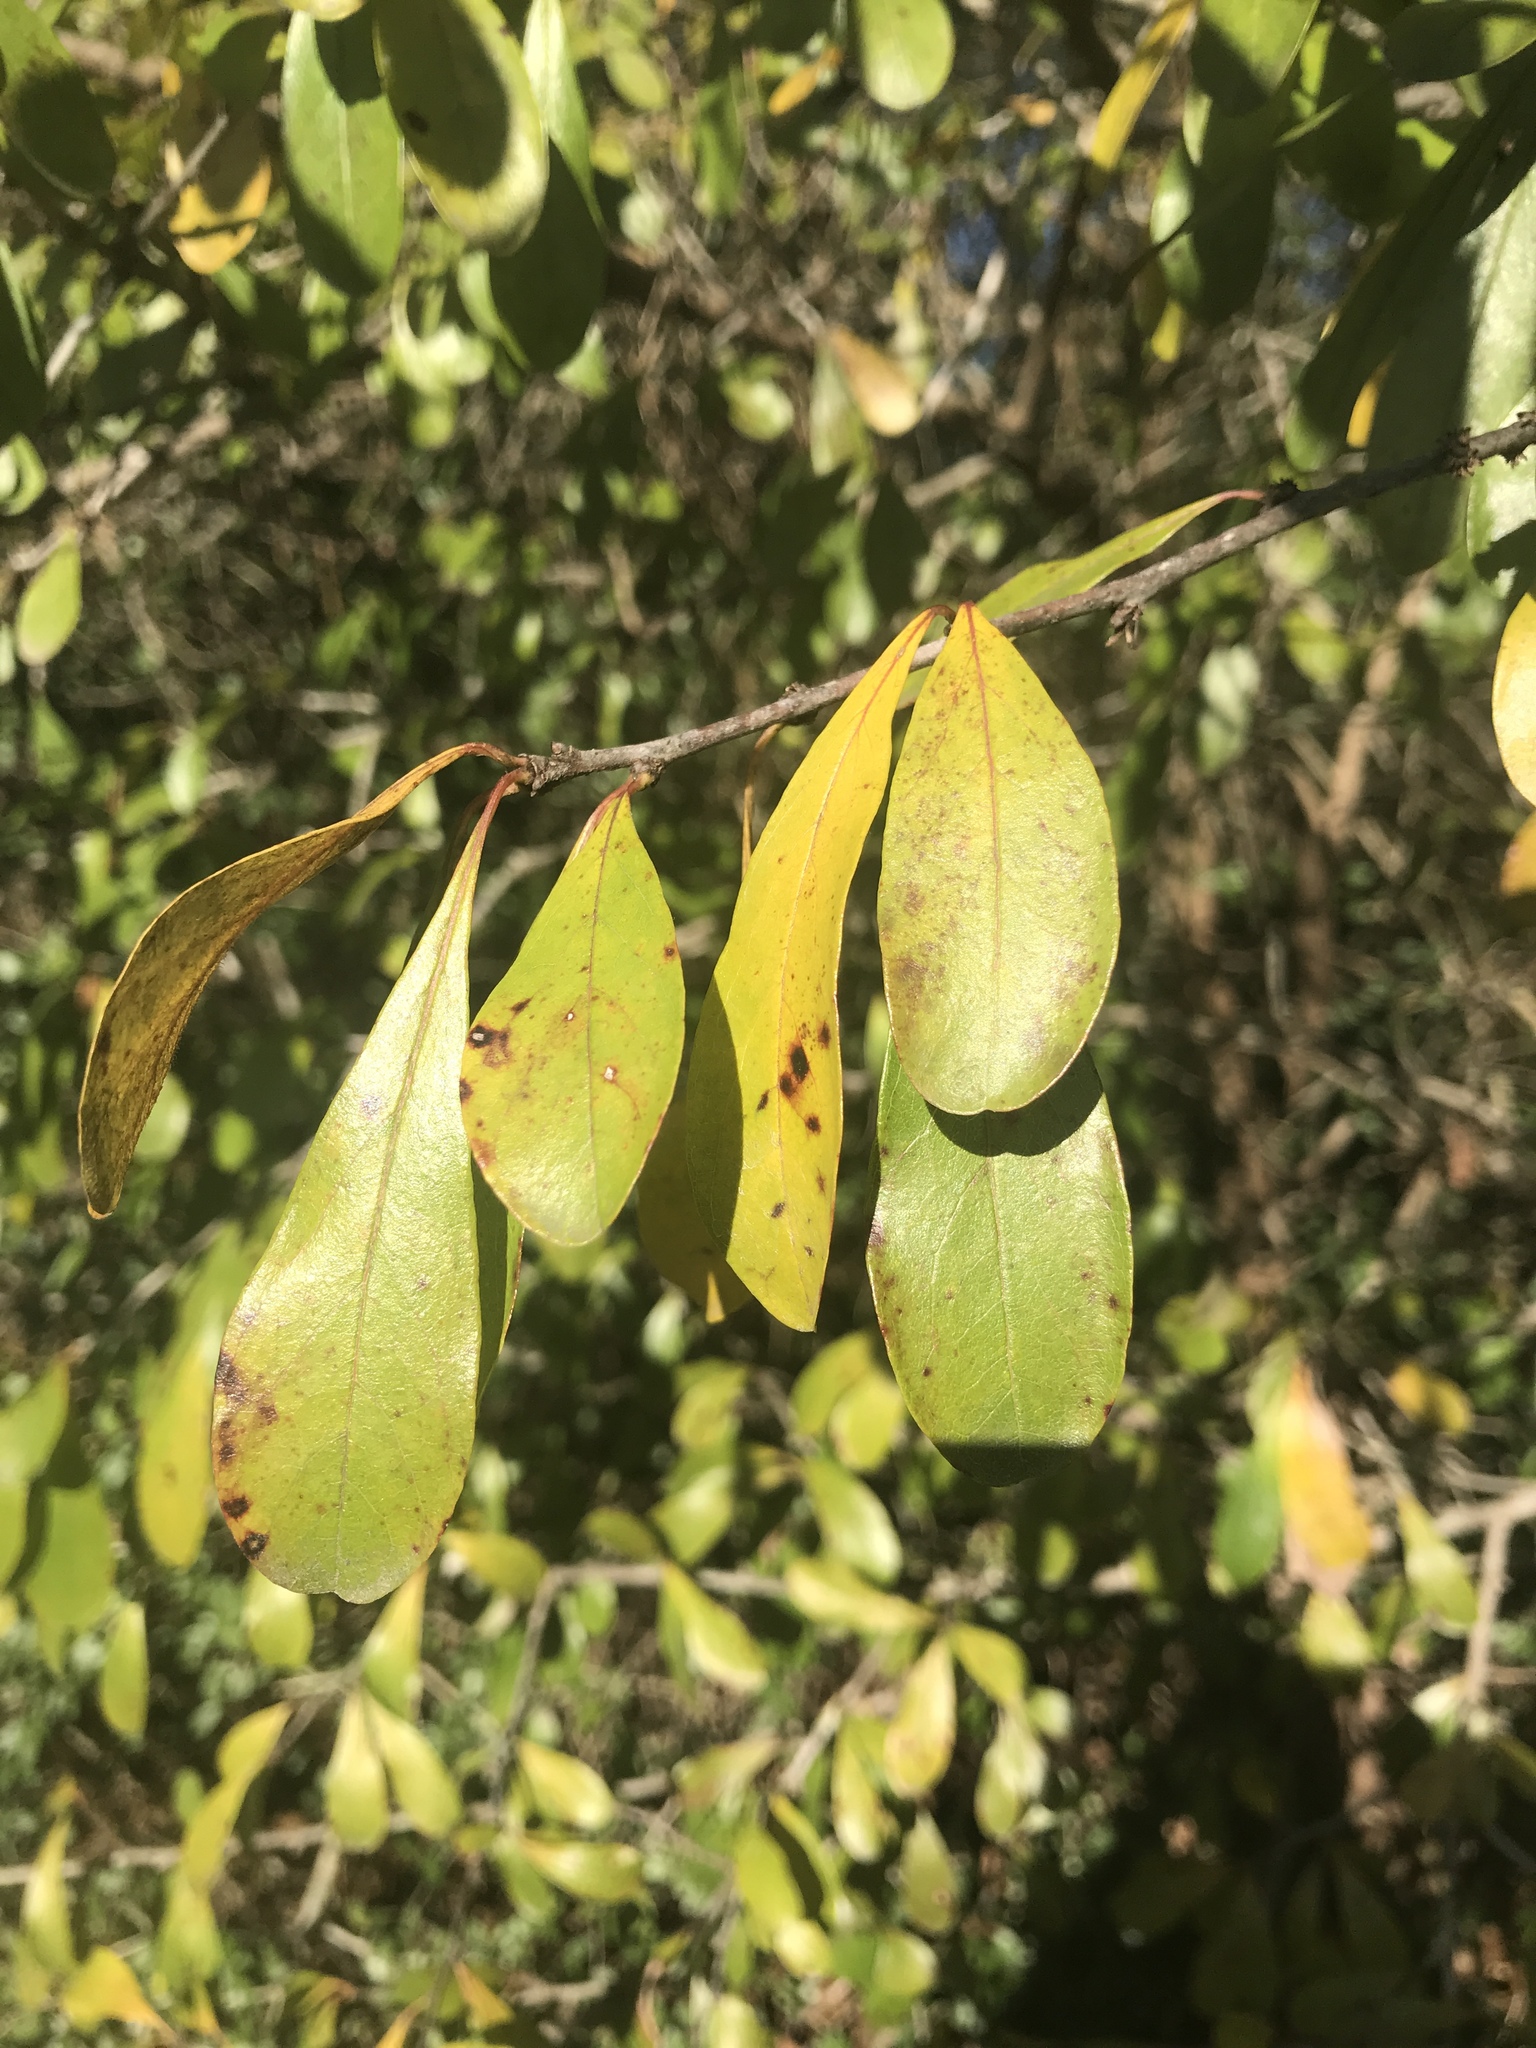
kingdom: Plantae
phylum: Tracheophyta
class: Magnoliopsida
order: Ericales
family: Sapotaceae
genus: Sideroxylon
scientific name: Sideroxylon lanuginosum
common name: Chittamwood
